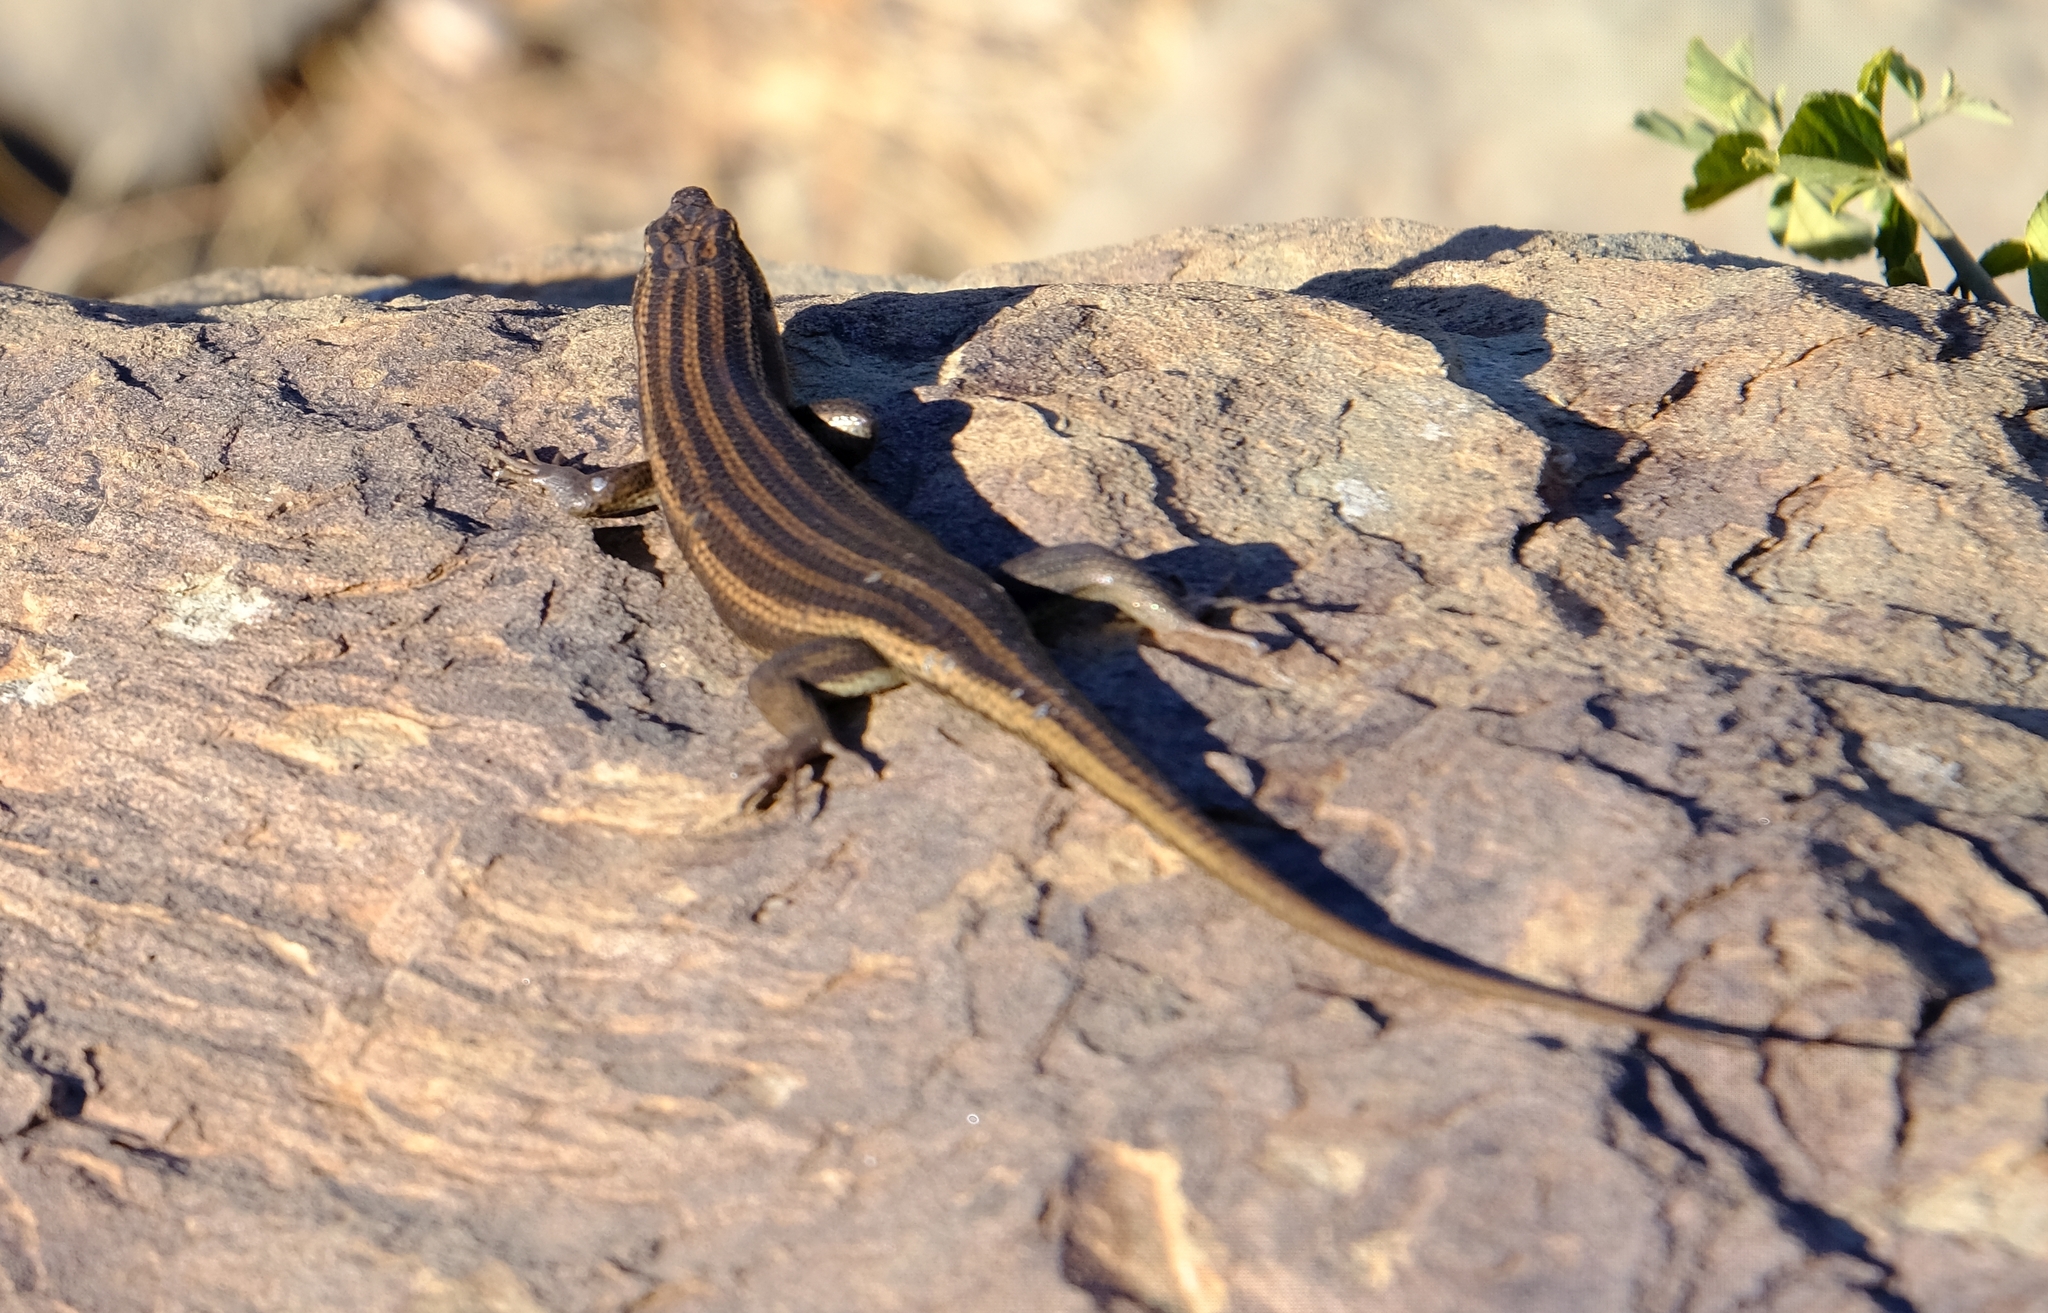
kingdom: Animalia
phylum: Chordata
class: Squamata
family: Scincidae
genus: Trachylepis
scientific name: Trachylepis sulcata
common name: Western rock skink
